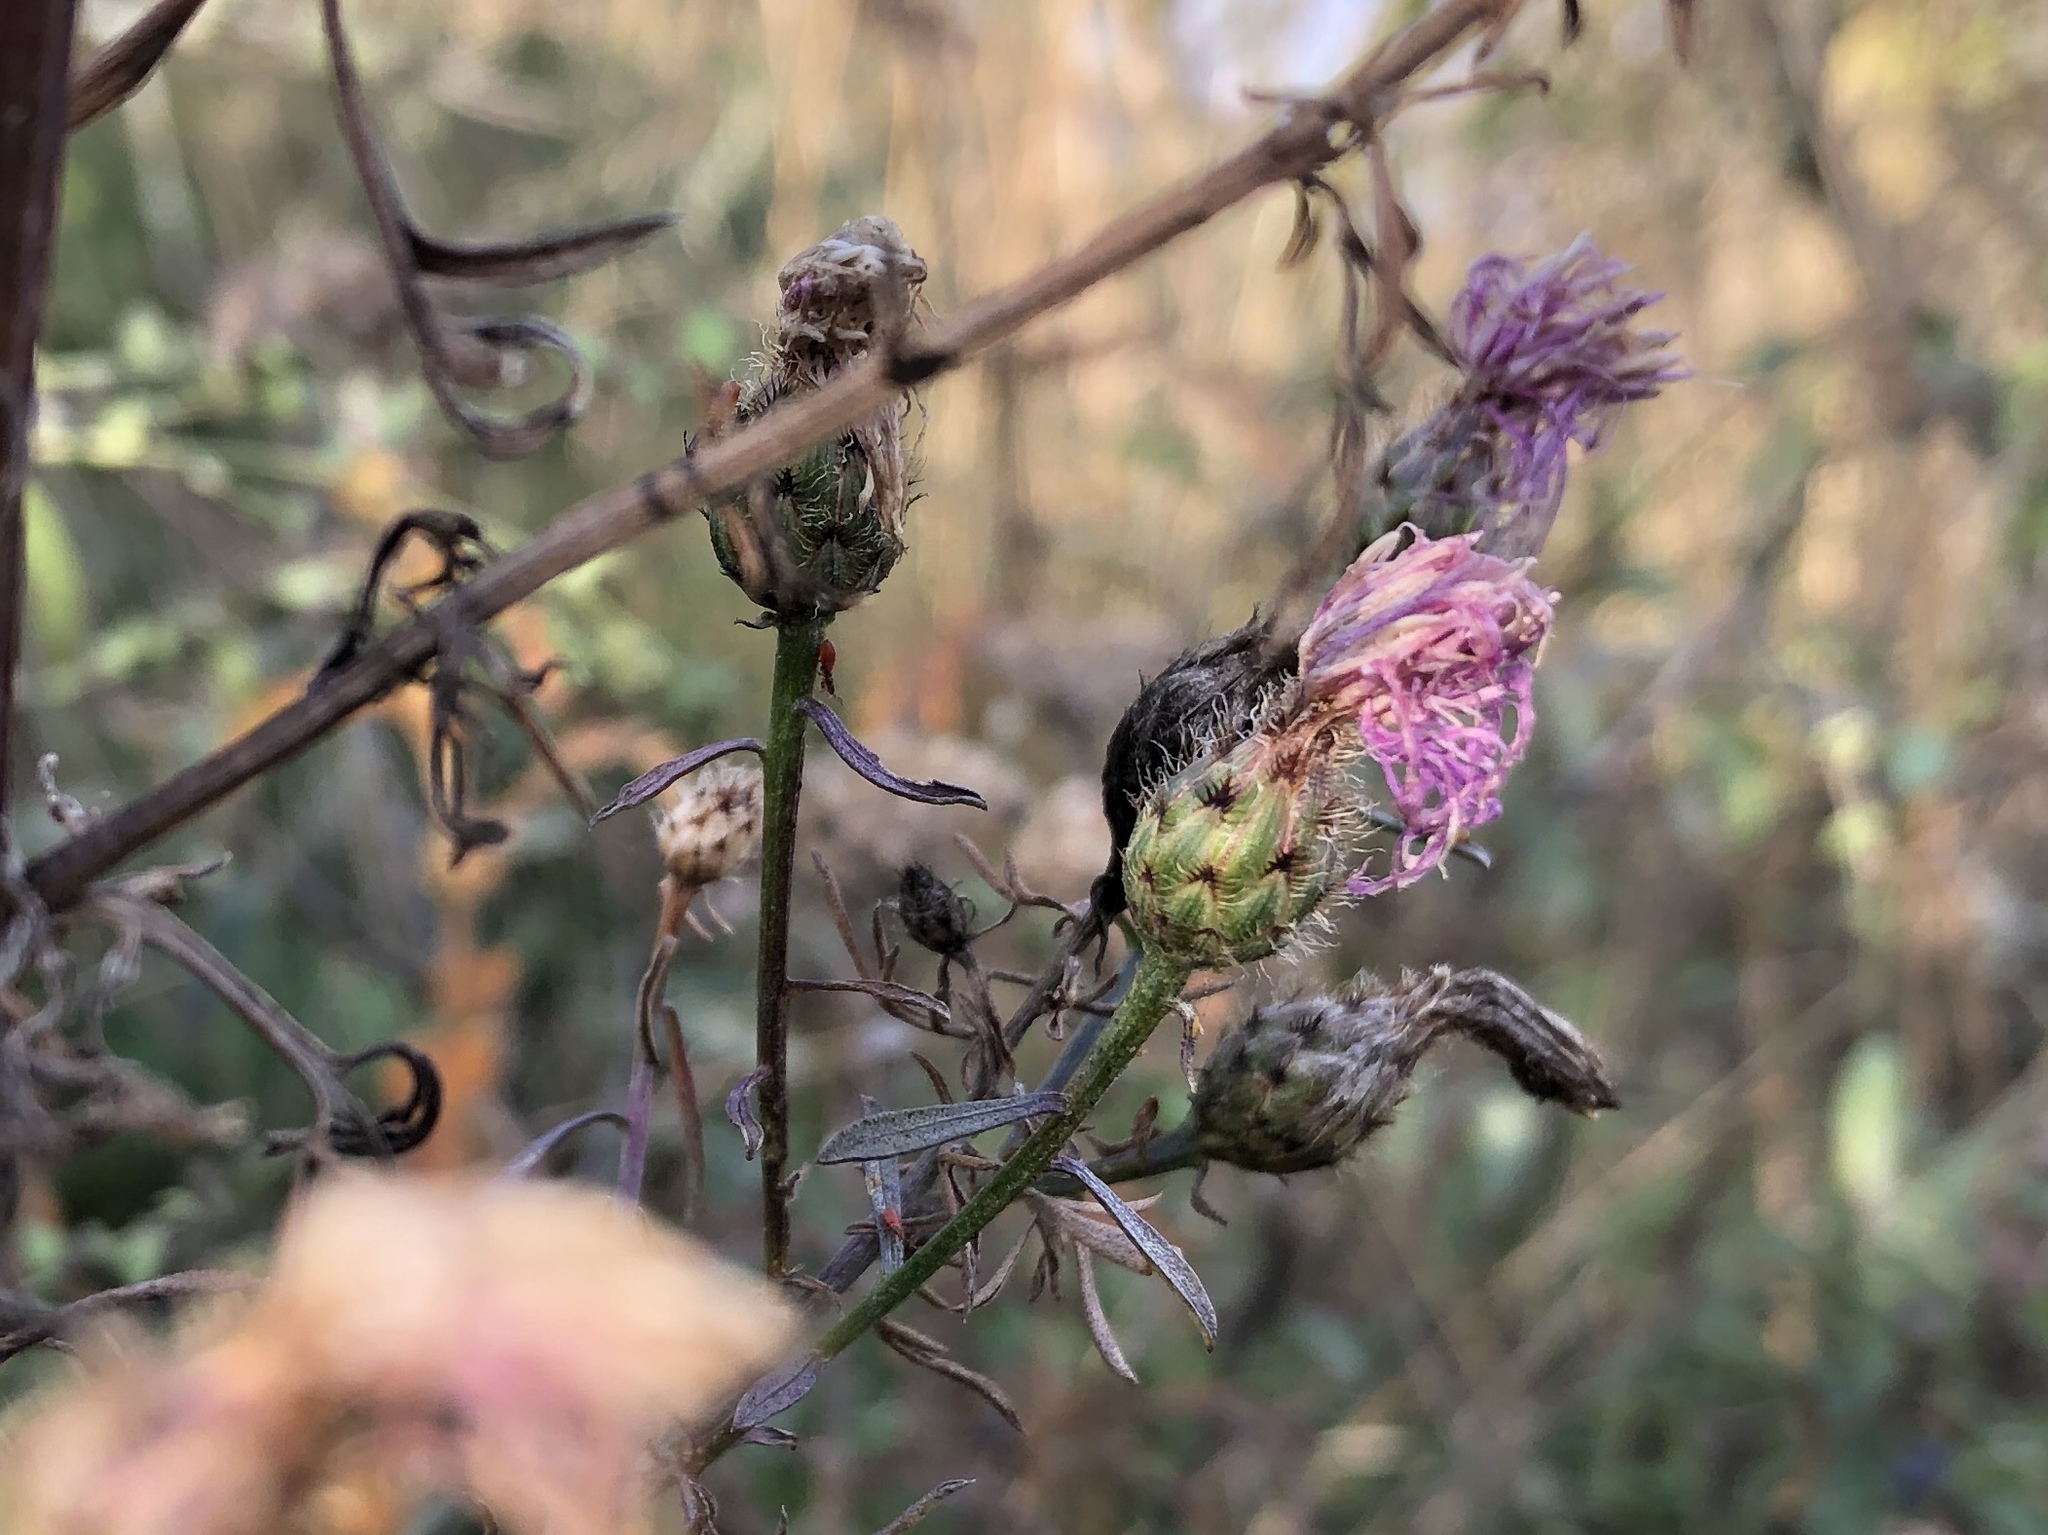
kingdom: Plantae
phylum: Tracheophyta
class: Magnoliopsida
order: Asterales
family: Asteraceae
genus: Centaurea
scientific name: Centaurea stoebe
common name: Spotted knapweed
